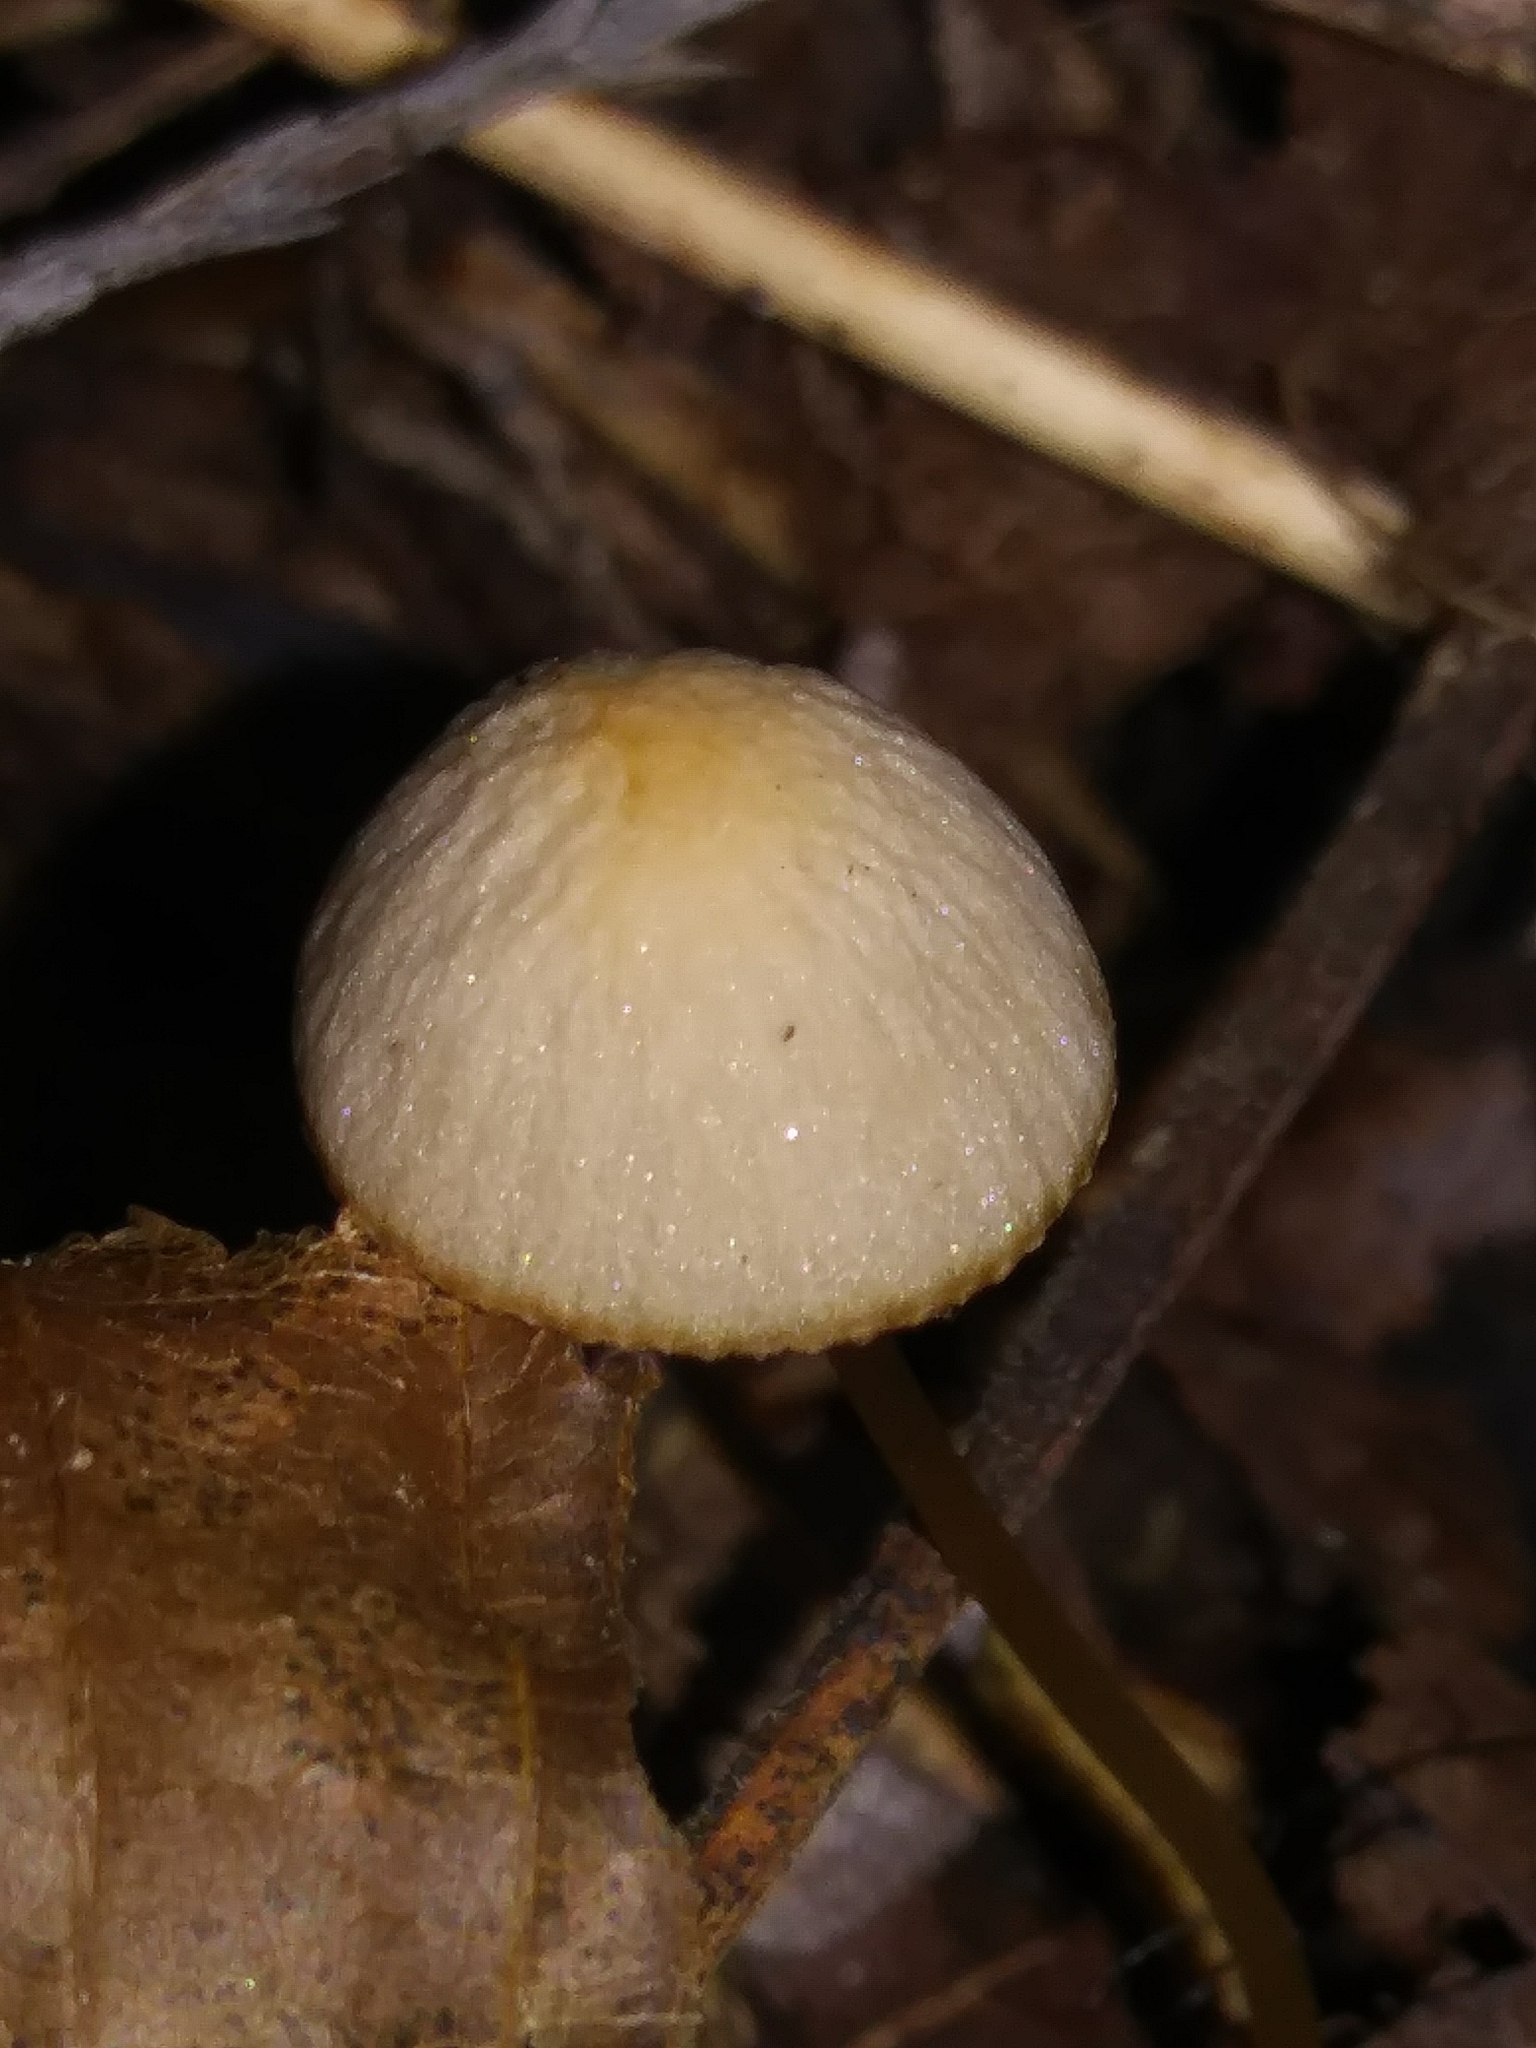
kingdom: Fungi
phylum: Basidiomycota
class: Agaricomycetes
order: Agaricales
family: Psathyrellaceae
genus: Psathyrella
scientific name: Psathyrella corrugis
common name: Red edge brittlestem
